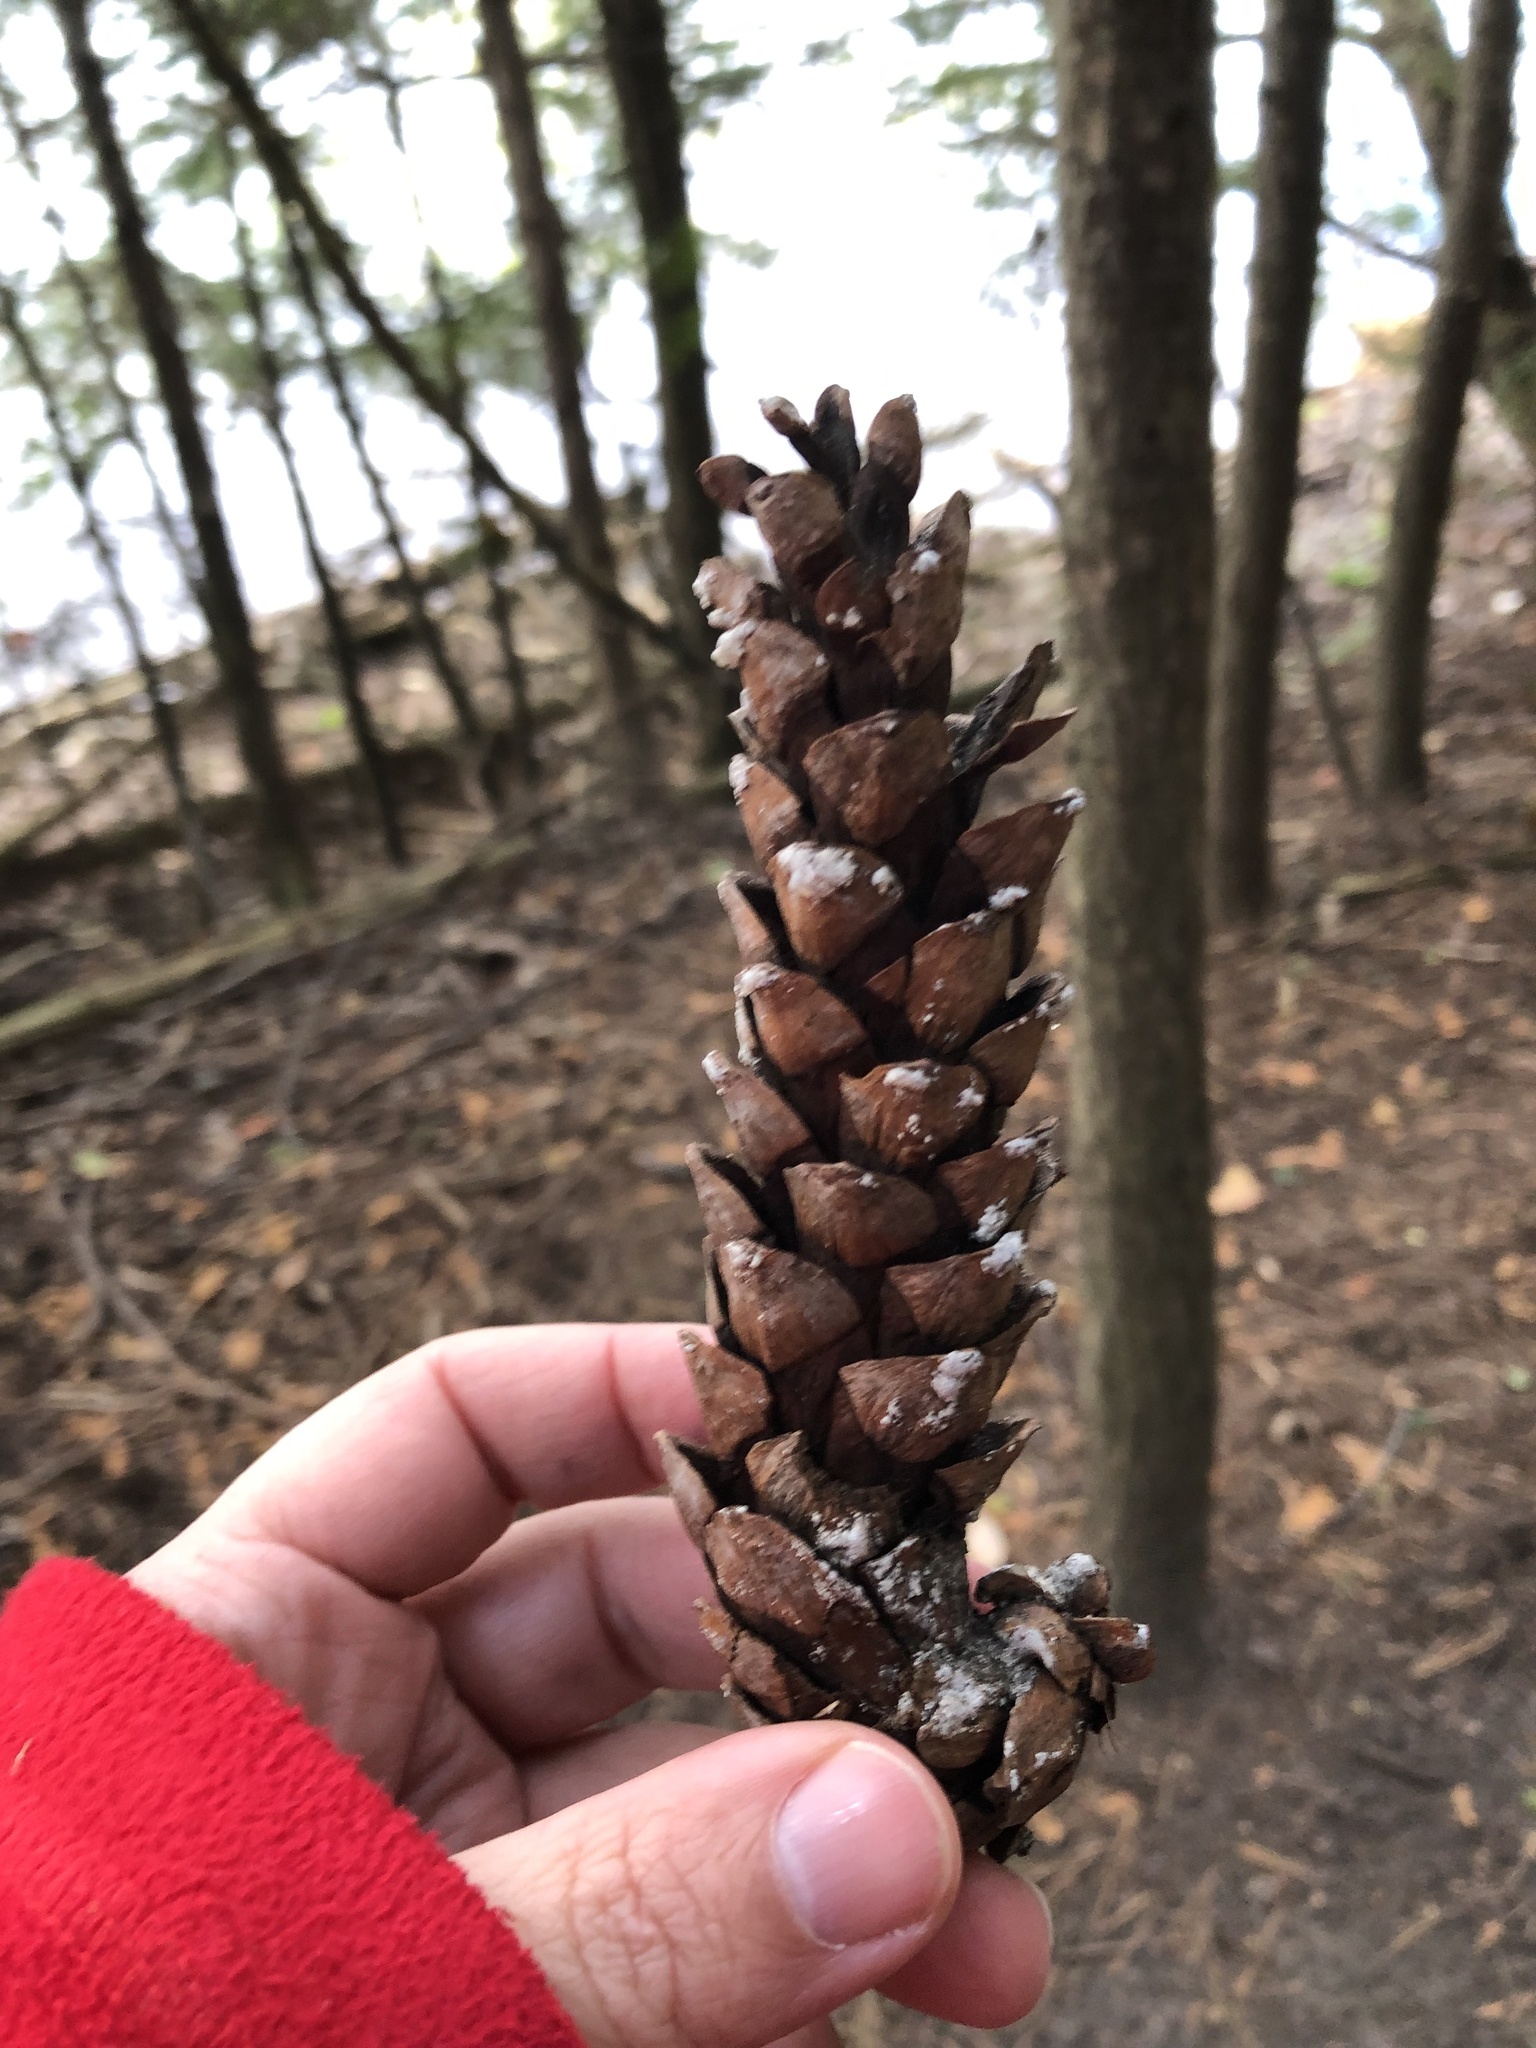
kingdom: Plantae
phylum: Tracheophyta
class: Pinopsida
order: Pinales
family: Pinaceae
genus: Pinus
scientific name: Pinus strobus
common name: Weymouth pine
